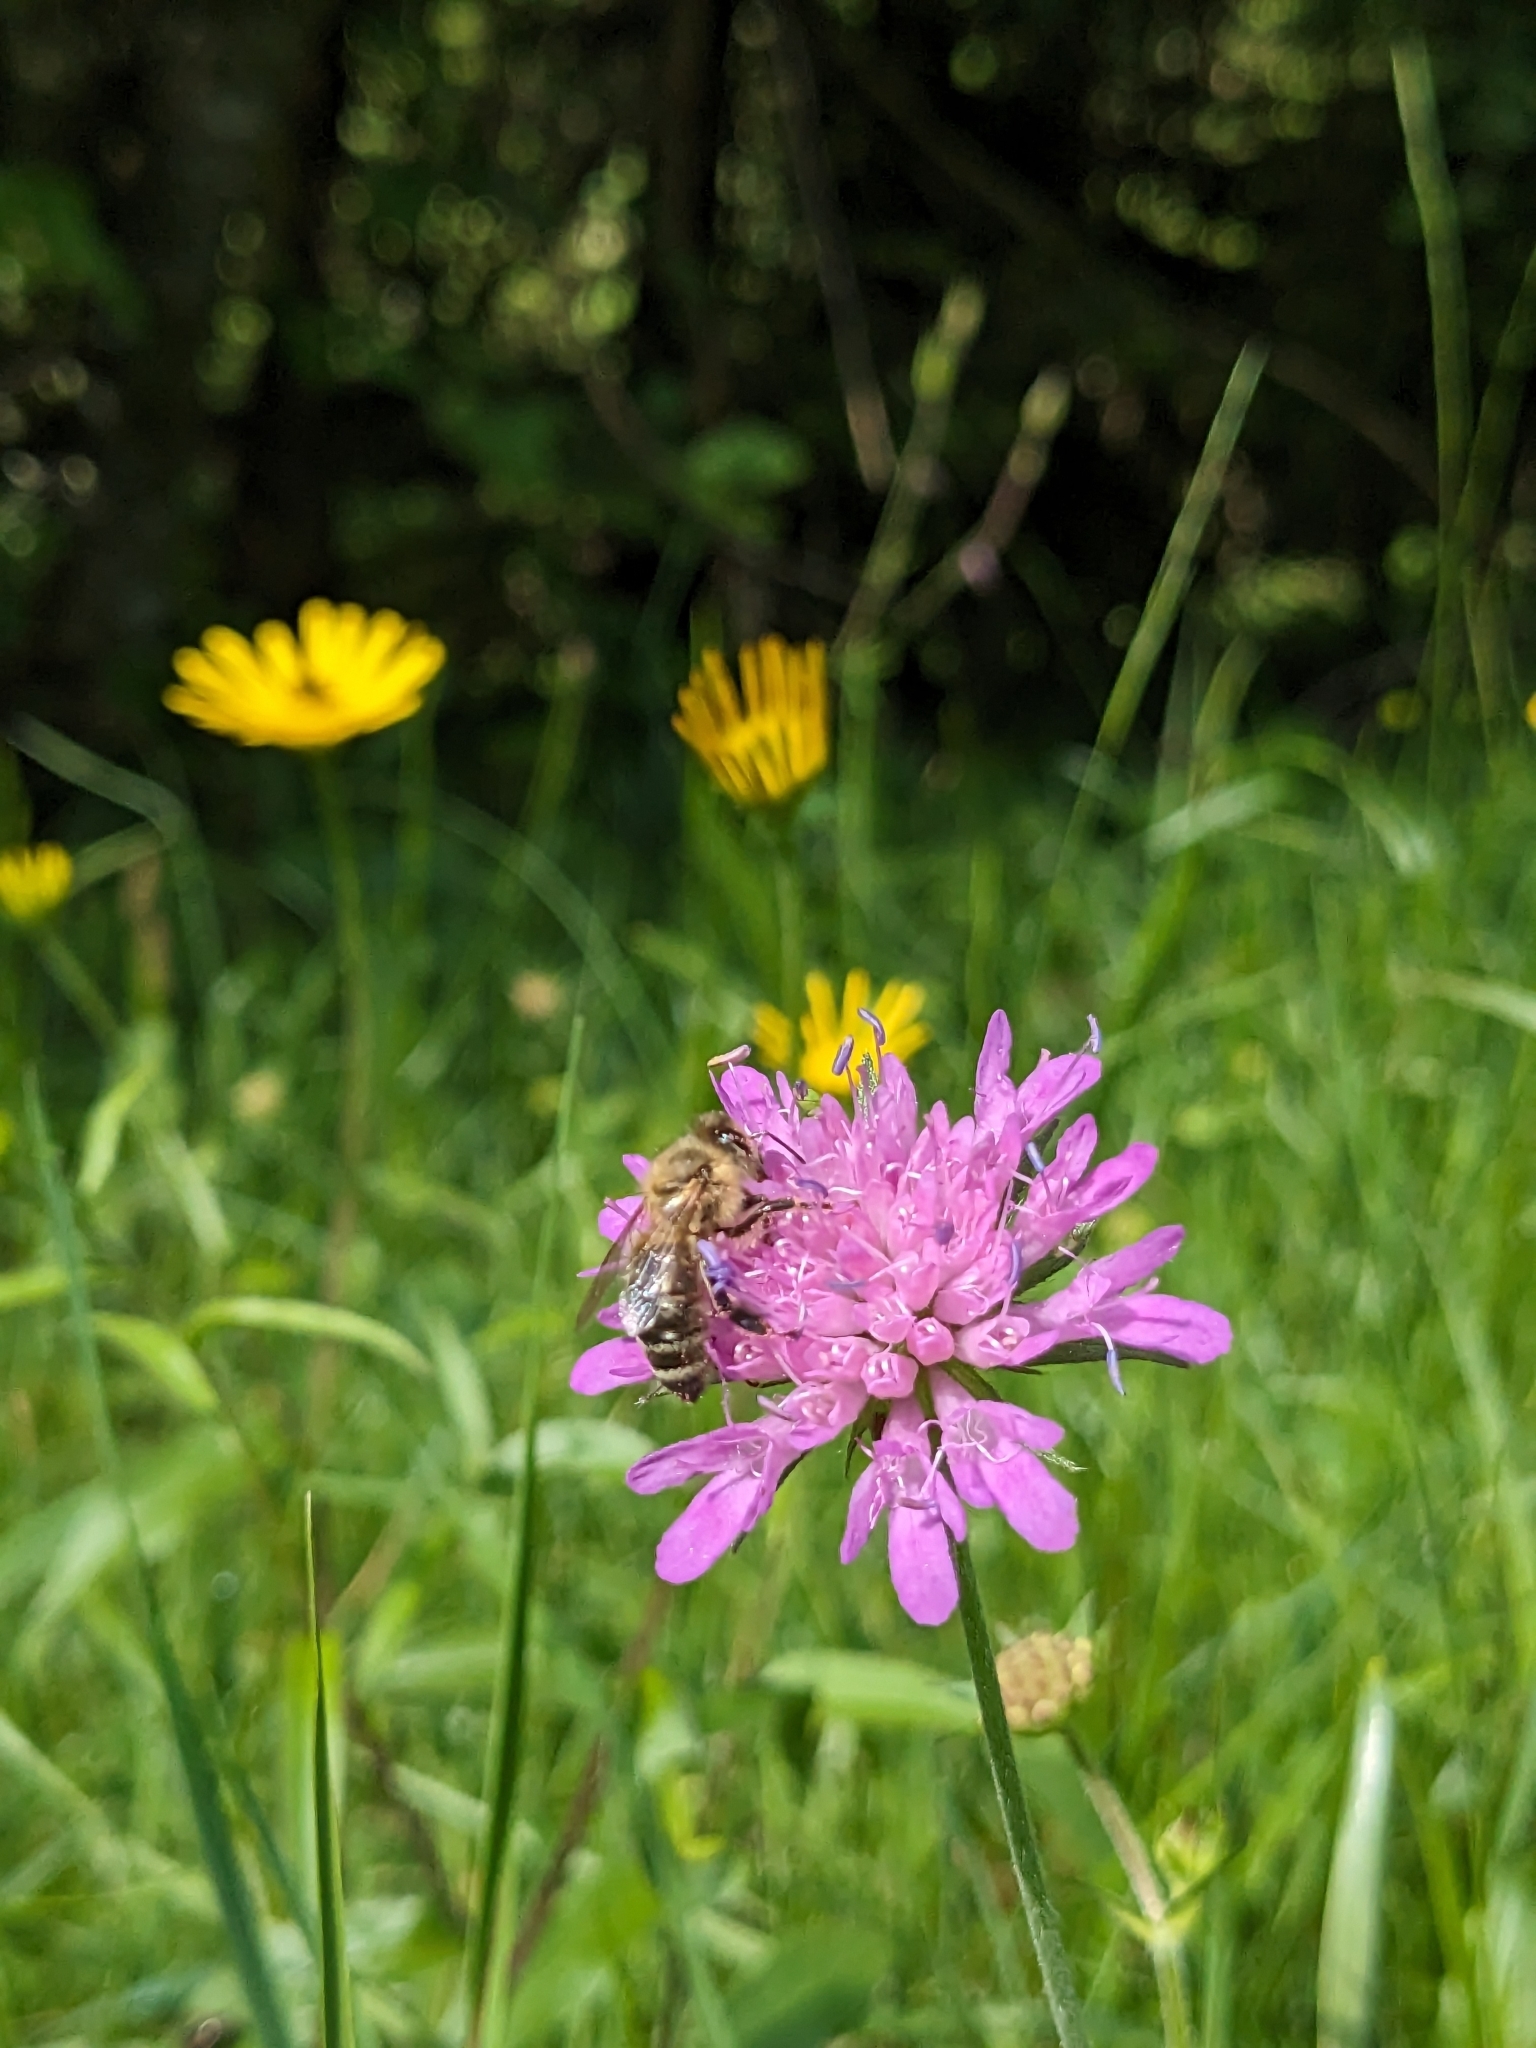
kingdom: Animalia
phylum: Arthropoda
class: Insecta
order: Hymenoptera
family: Apidae
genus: Apis
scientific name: Apis mellifera
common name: Honey bee
